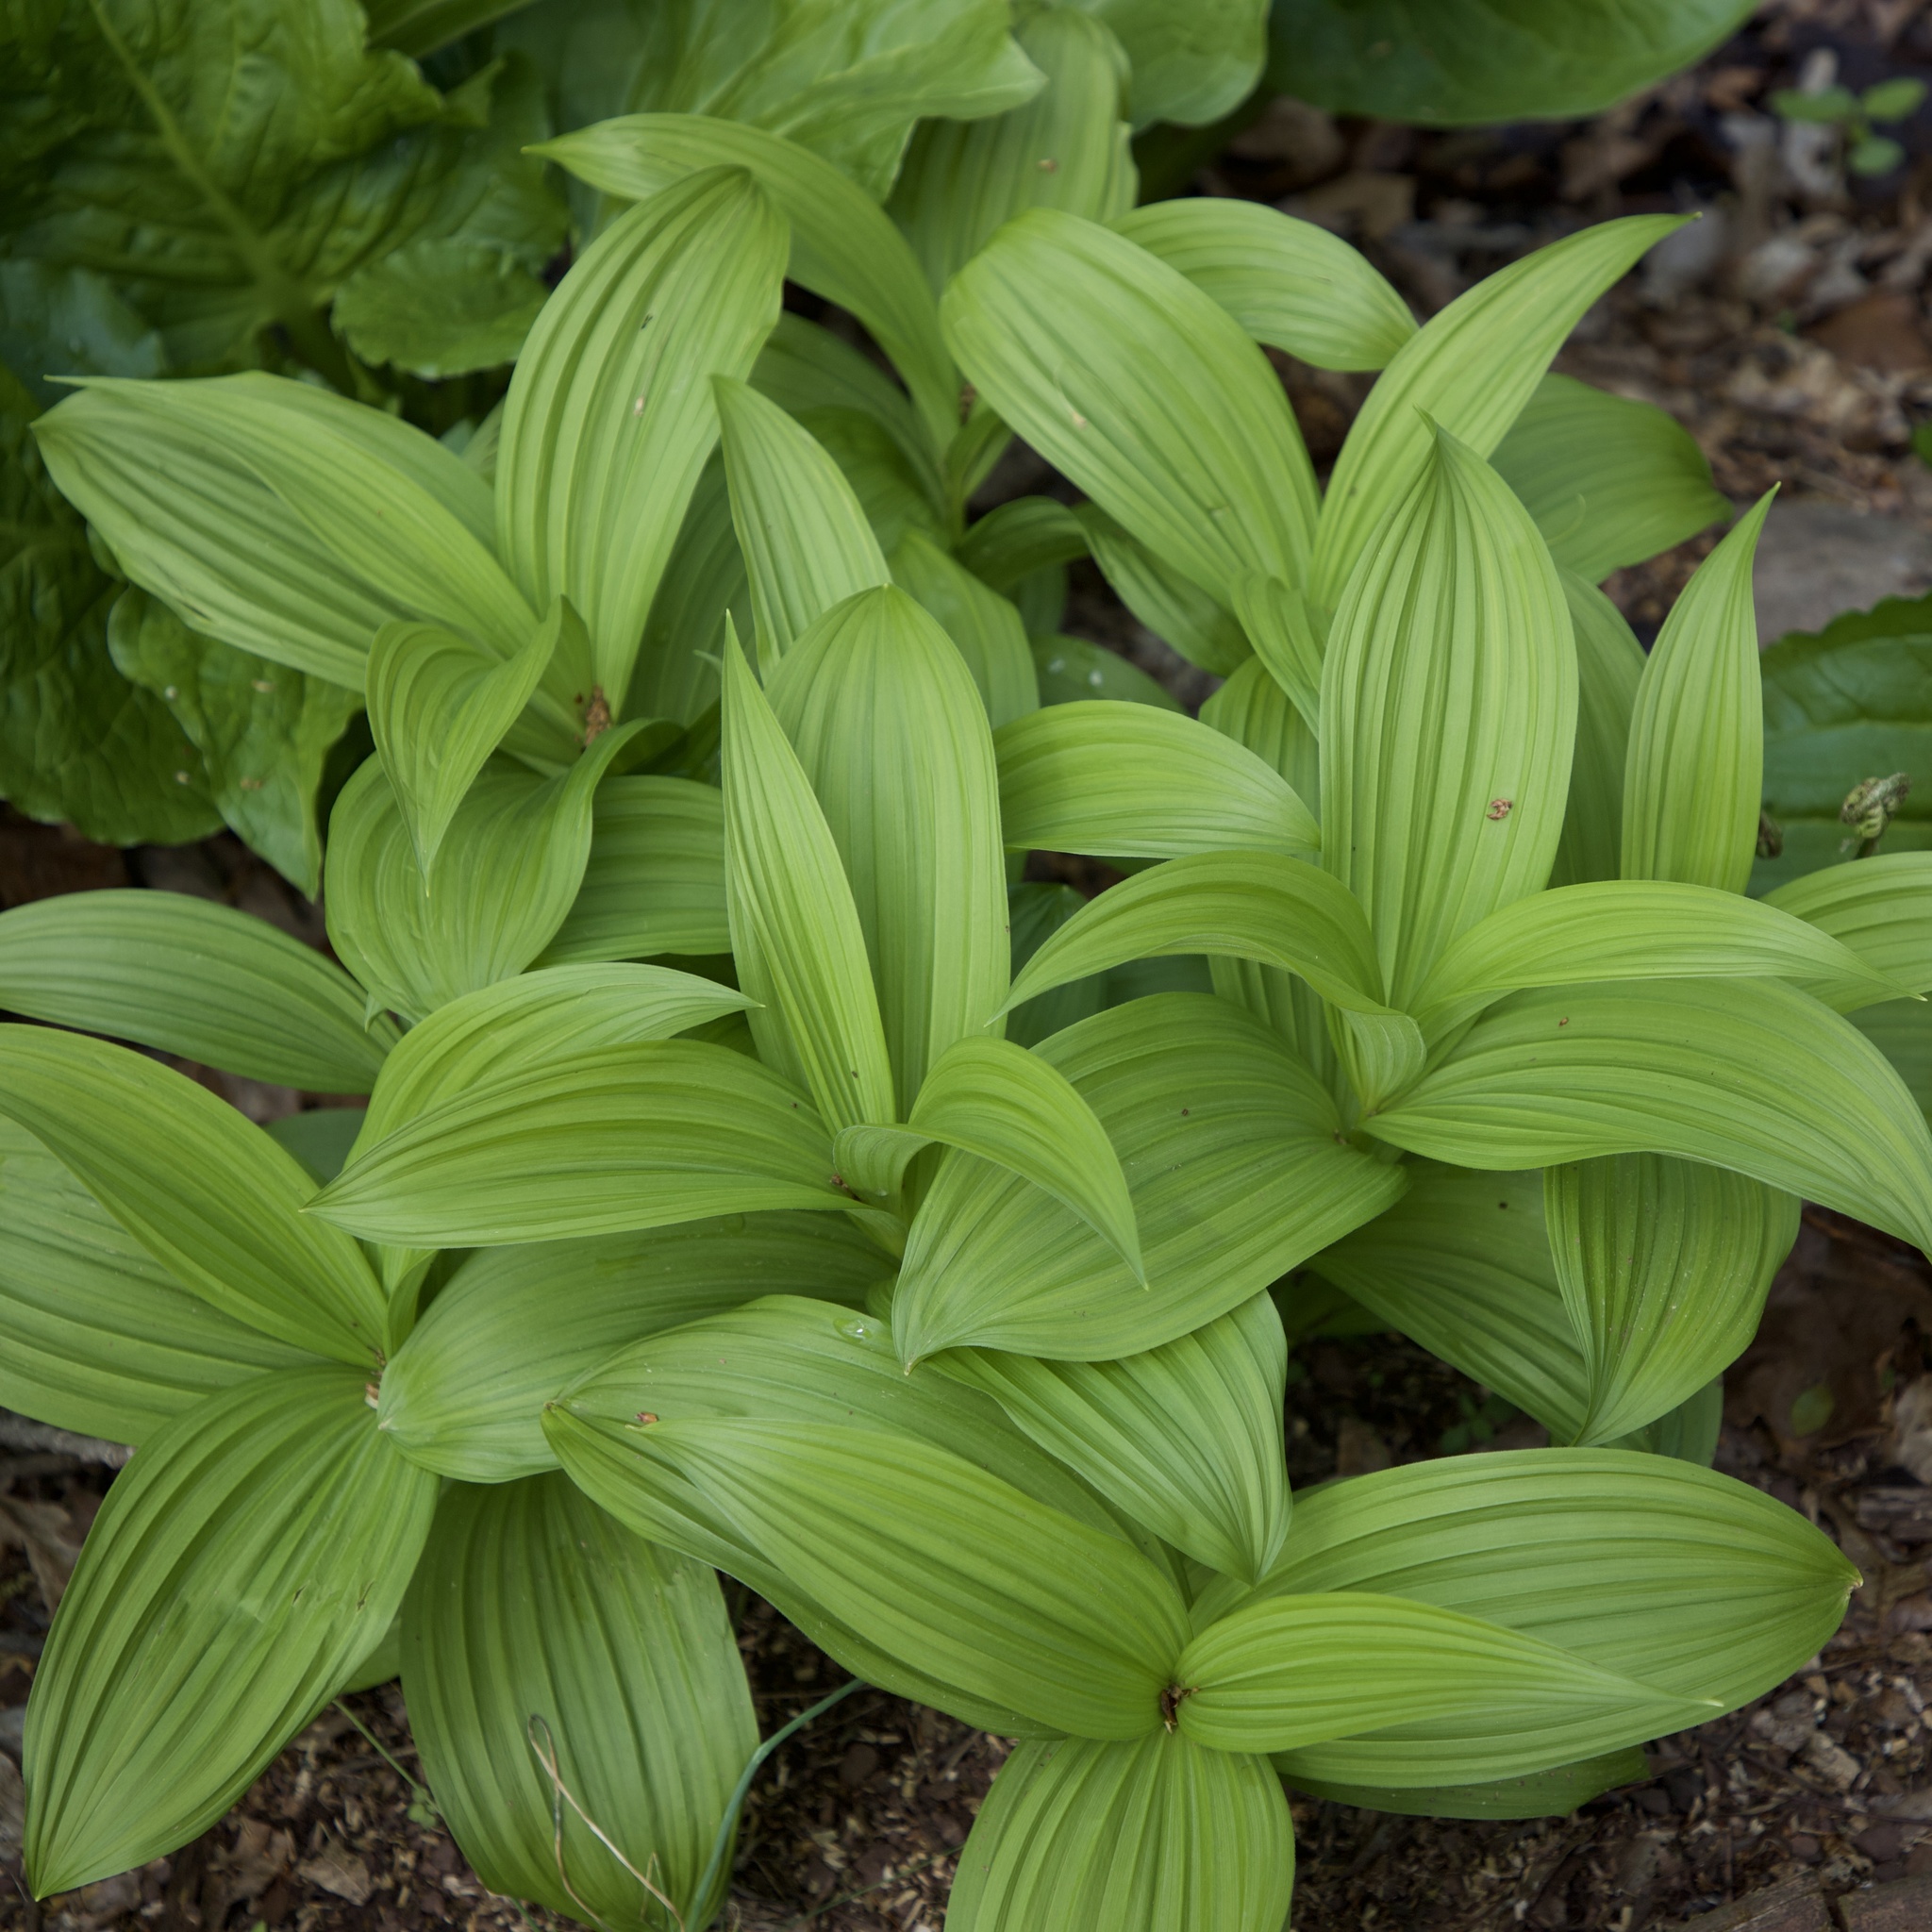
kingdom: Plantae
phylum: Tracheophyta
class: Liliopsida
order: Liliales
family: Melanthiaceae
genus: Veratrum
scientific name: Veratrum viride
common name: American false hellebore
